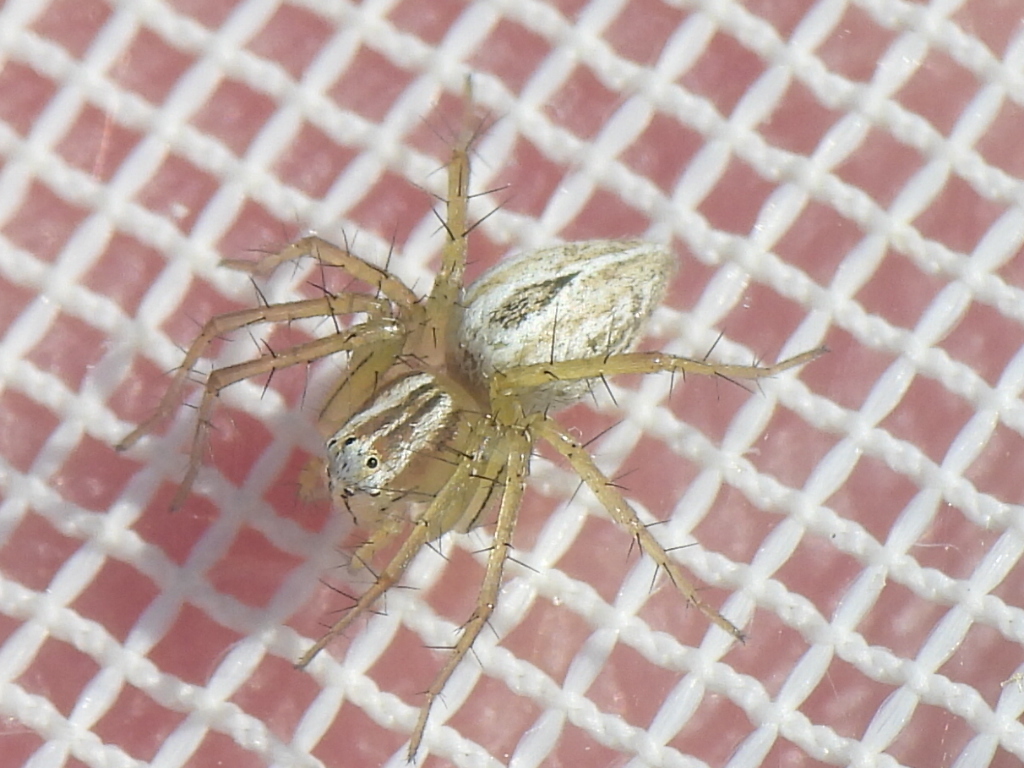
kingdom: Animalia
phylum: Arthropoda
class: Arachnida
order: Araneae
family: Oxyopidae
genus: Oxyopes
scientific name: Oxyopes salticus
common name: Lynx spiders
